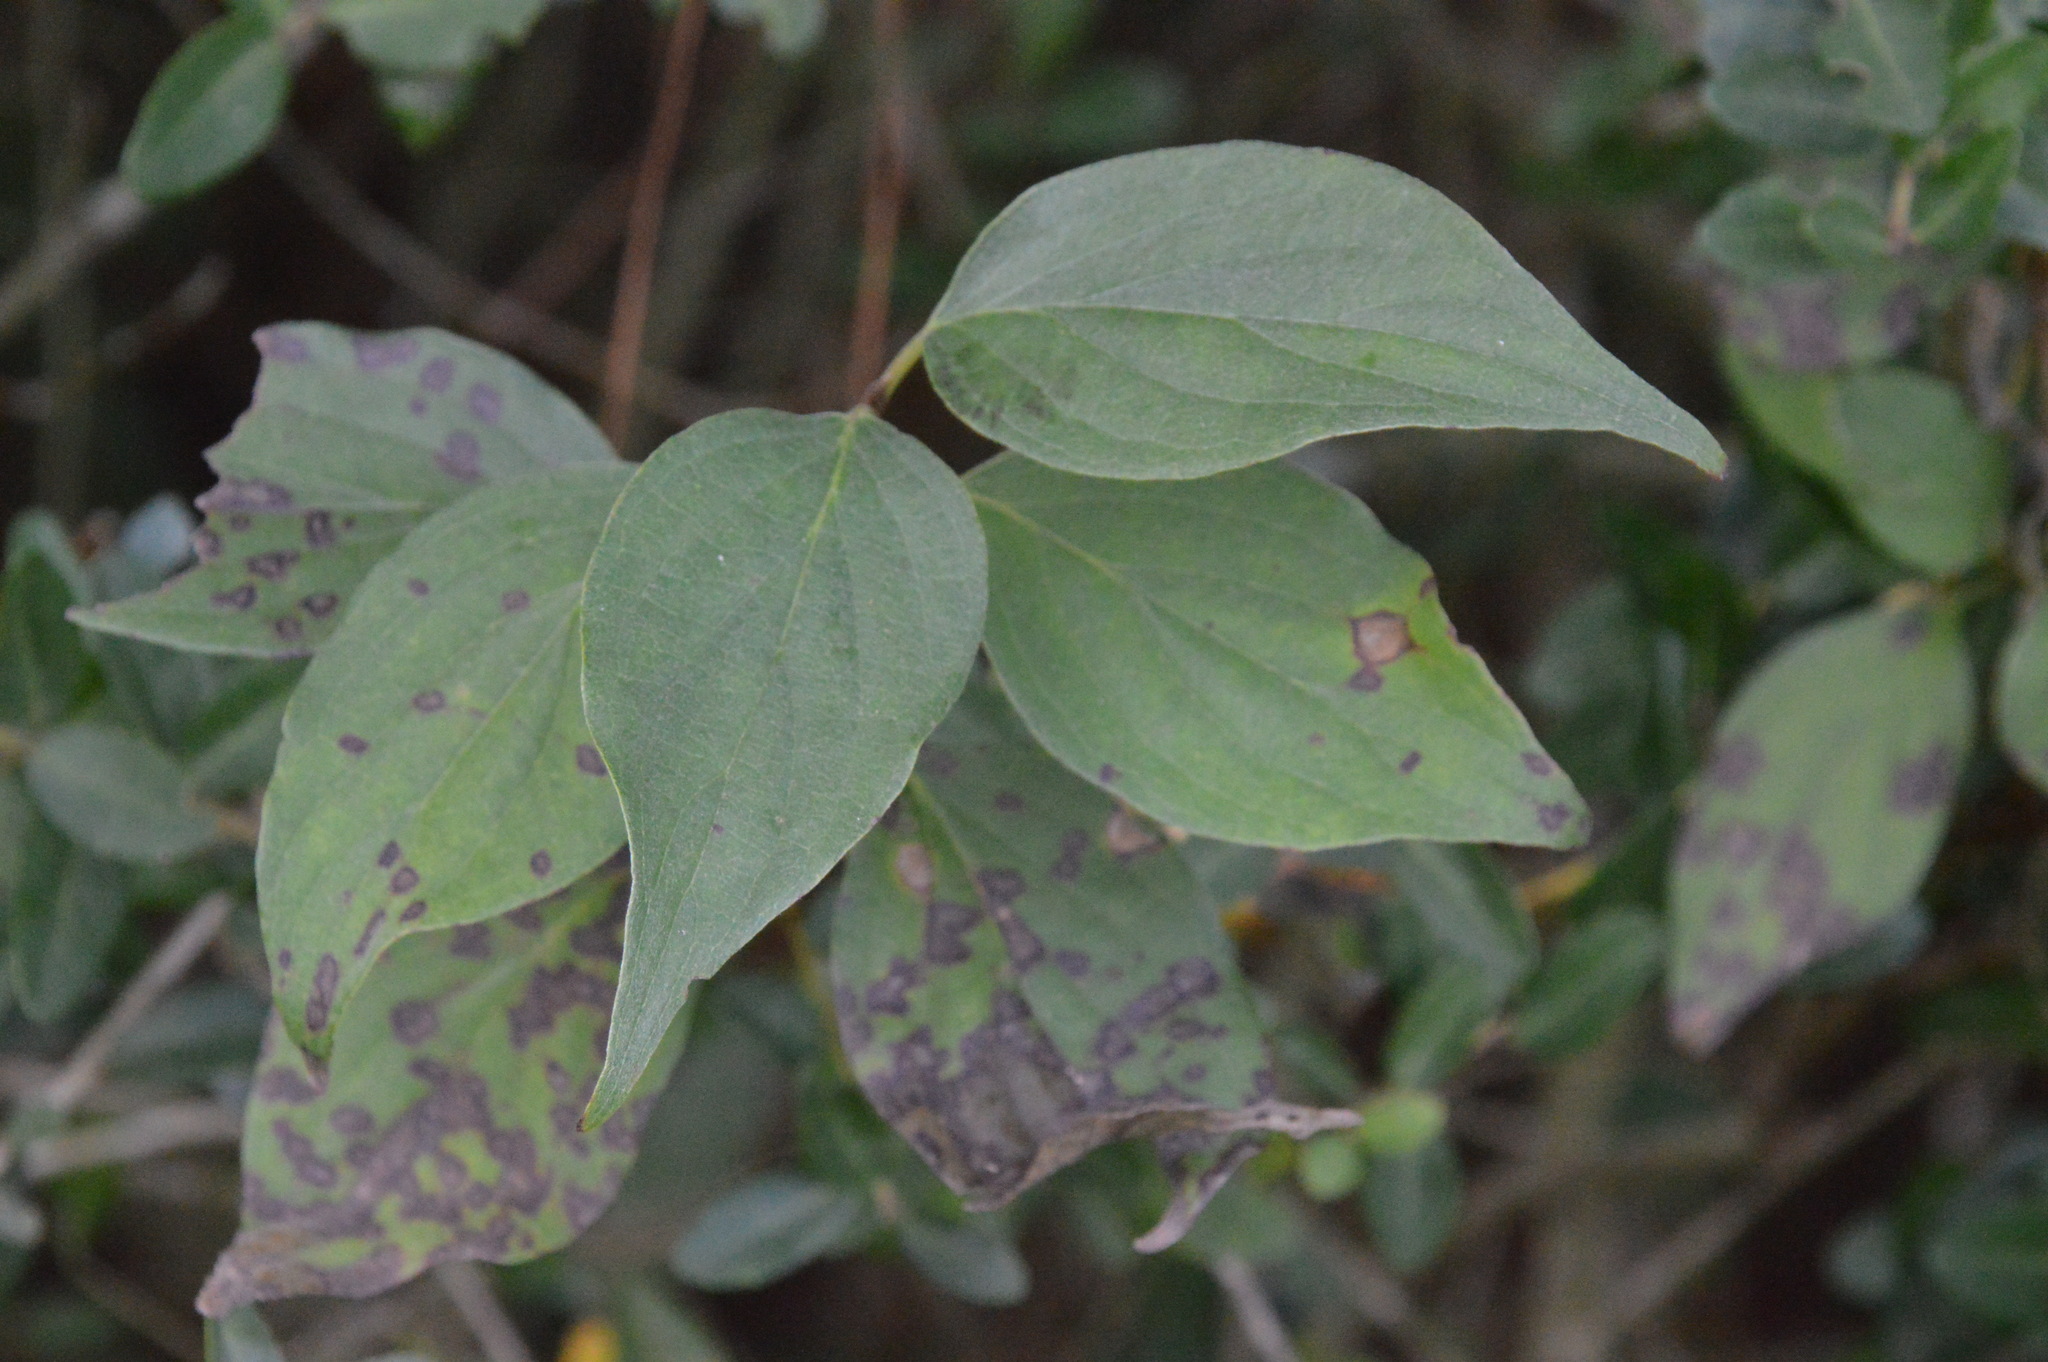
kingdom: Plantae
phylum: Tracheophyta
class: Magnoliopsida
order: Cornales
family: Cornaceae
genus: Cornus
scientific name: Cornus drummondii
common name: Rough-leaf dogwood
